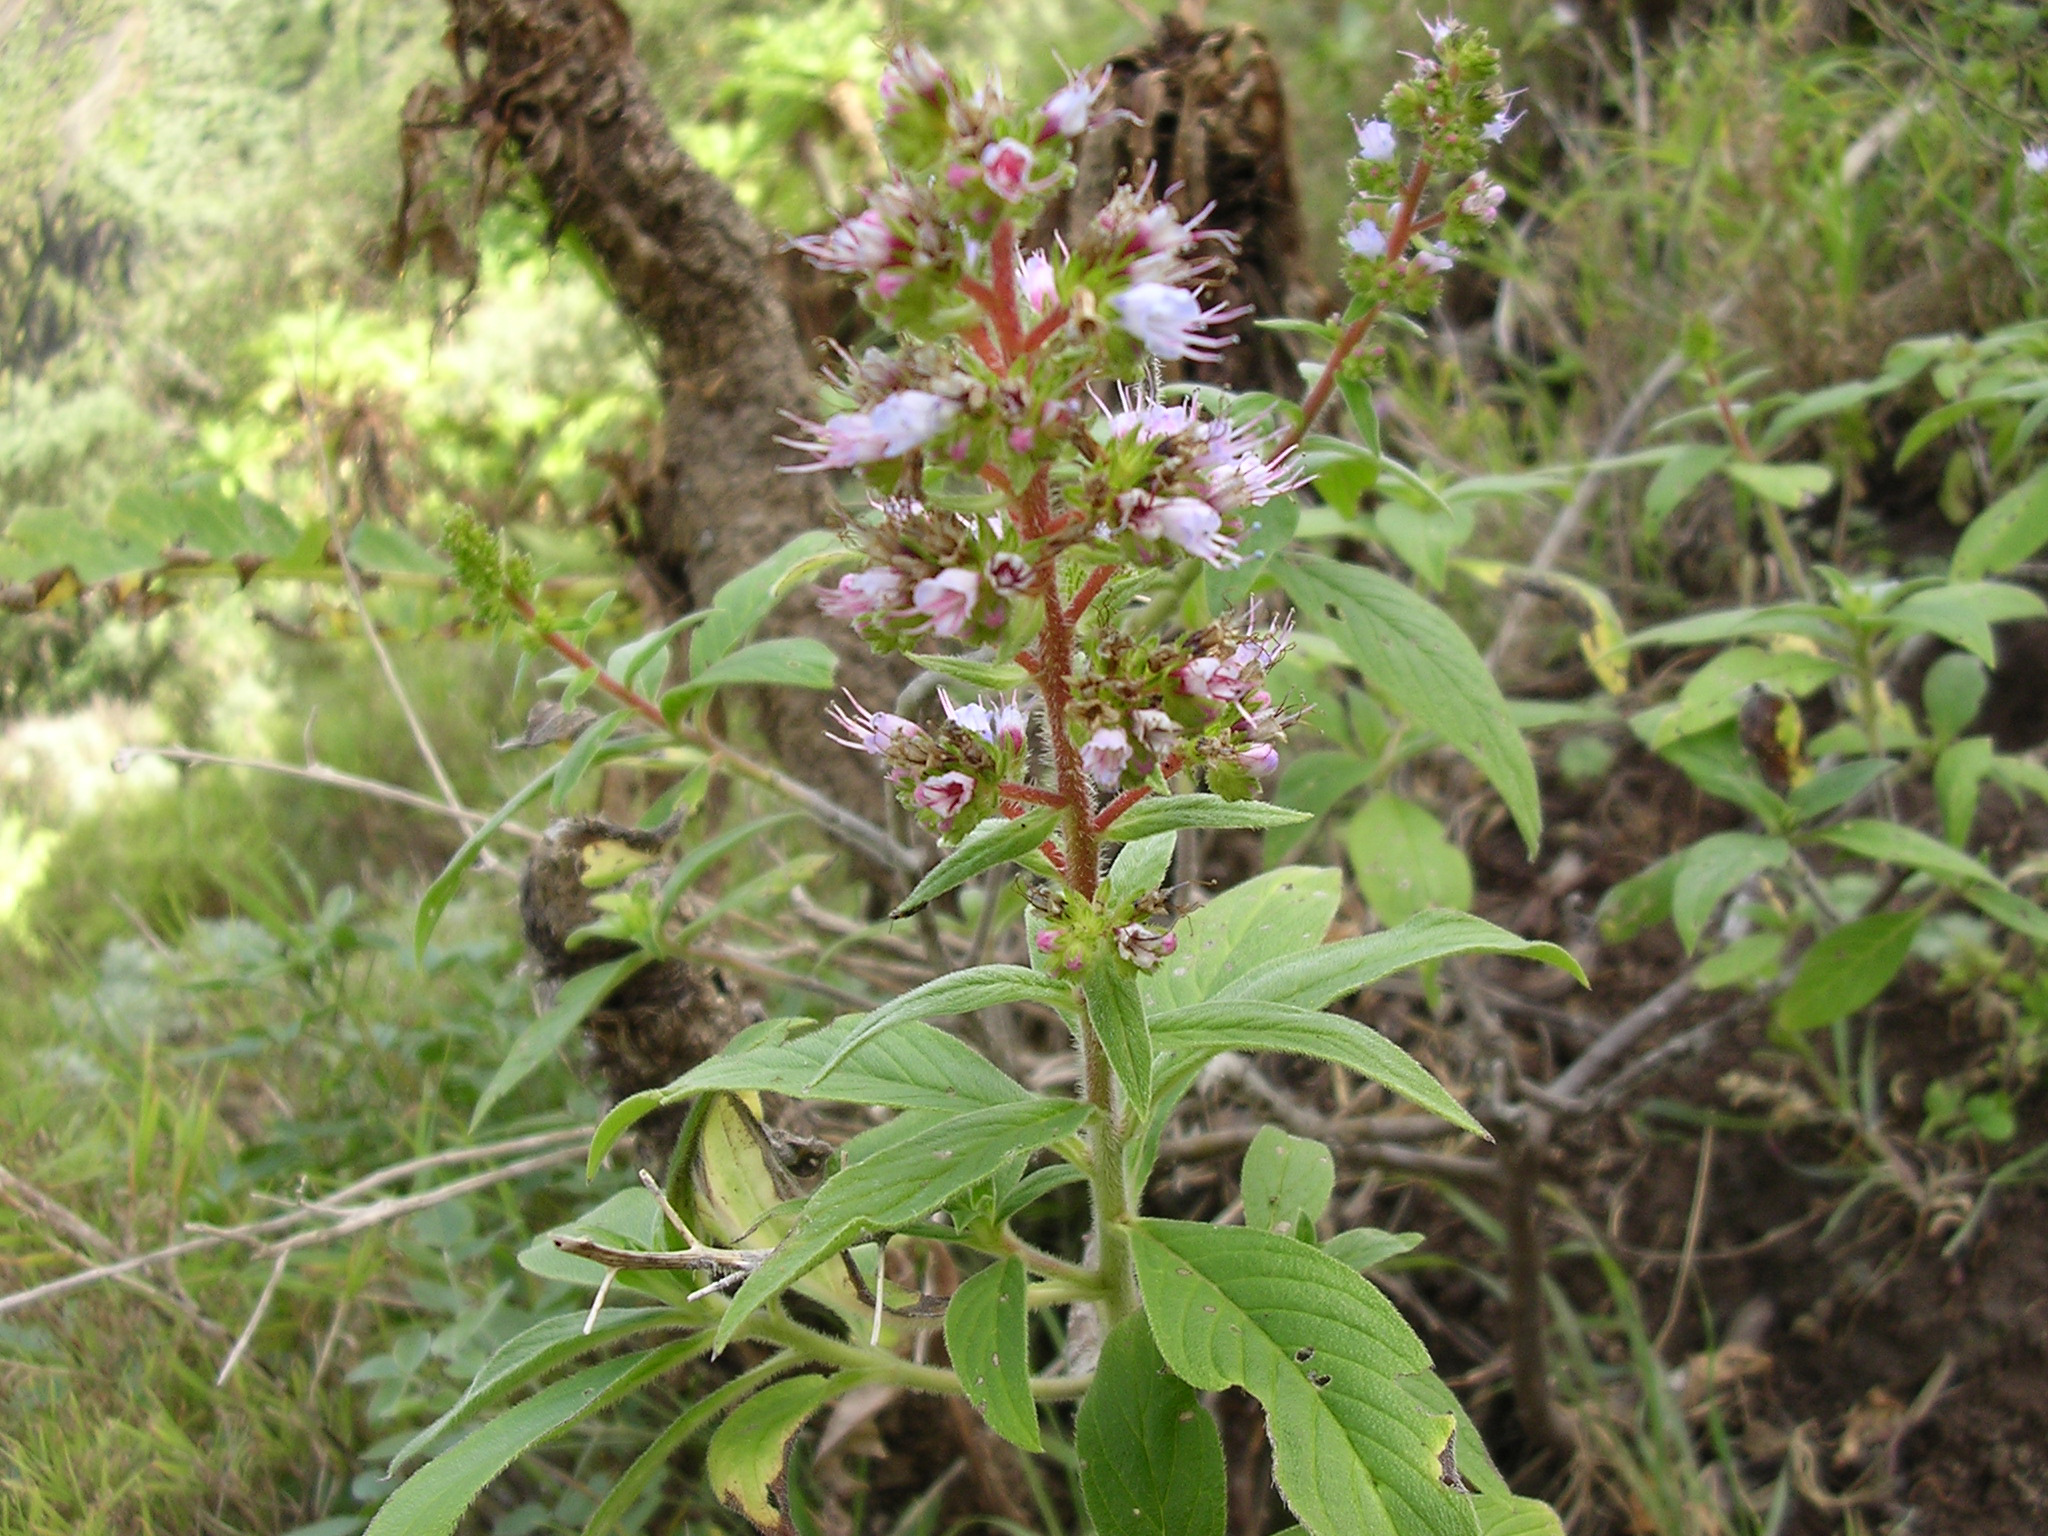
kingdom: Plantae
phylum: Tracheophyta
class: Magnoliopsida
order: Boraginales
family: Boraginaceae
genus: Echium
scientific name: Echium strictum
